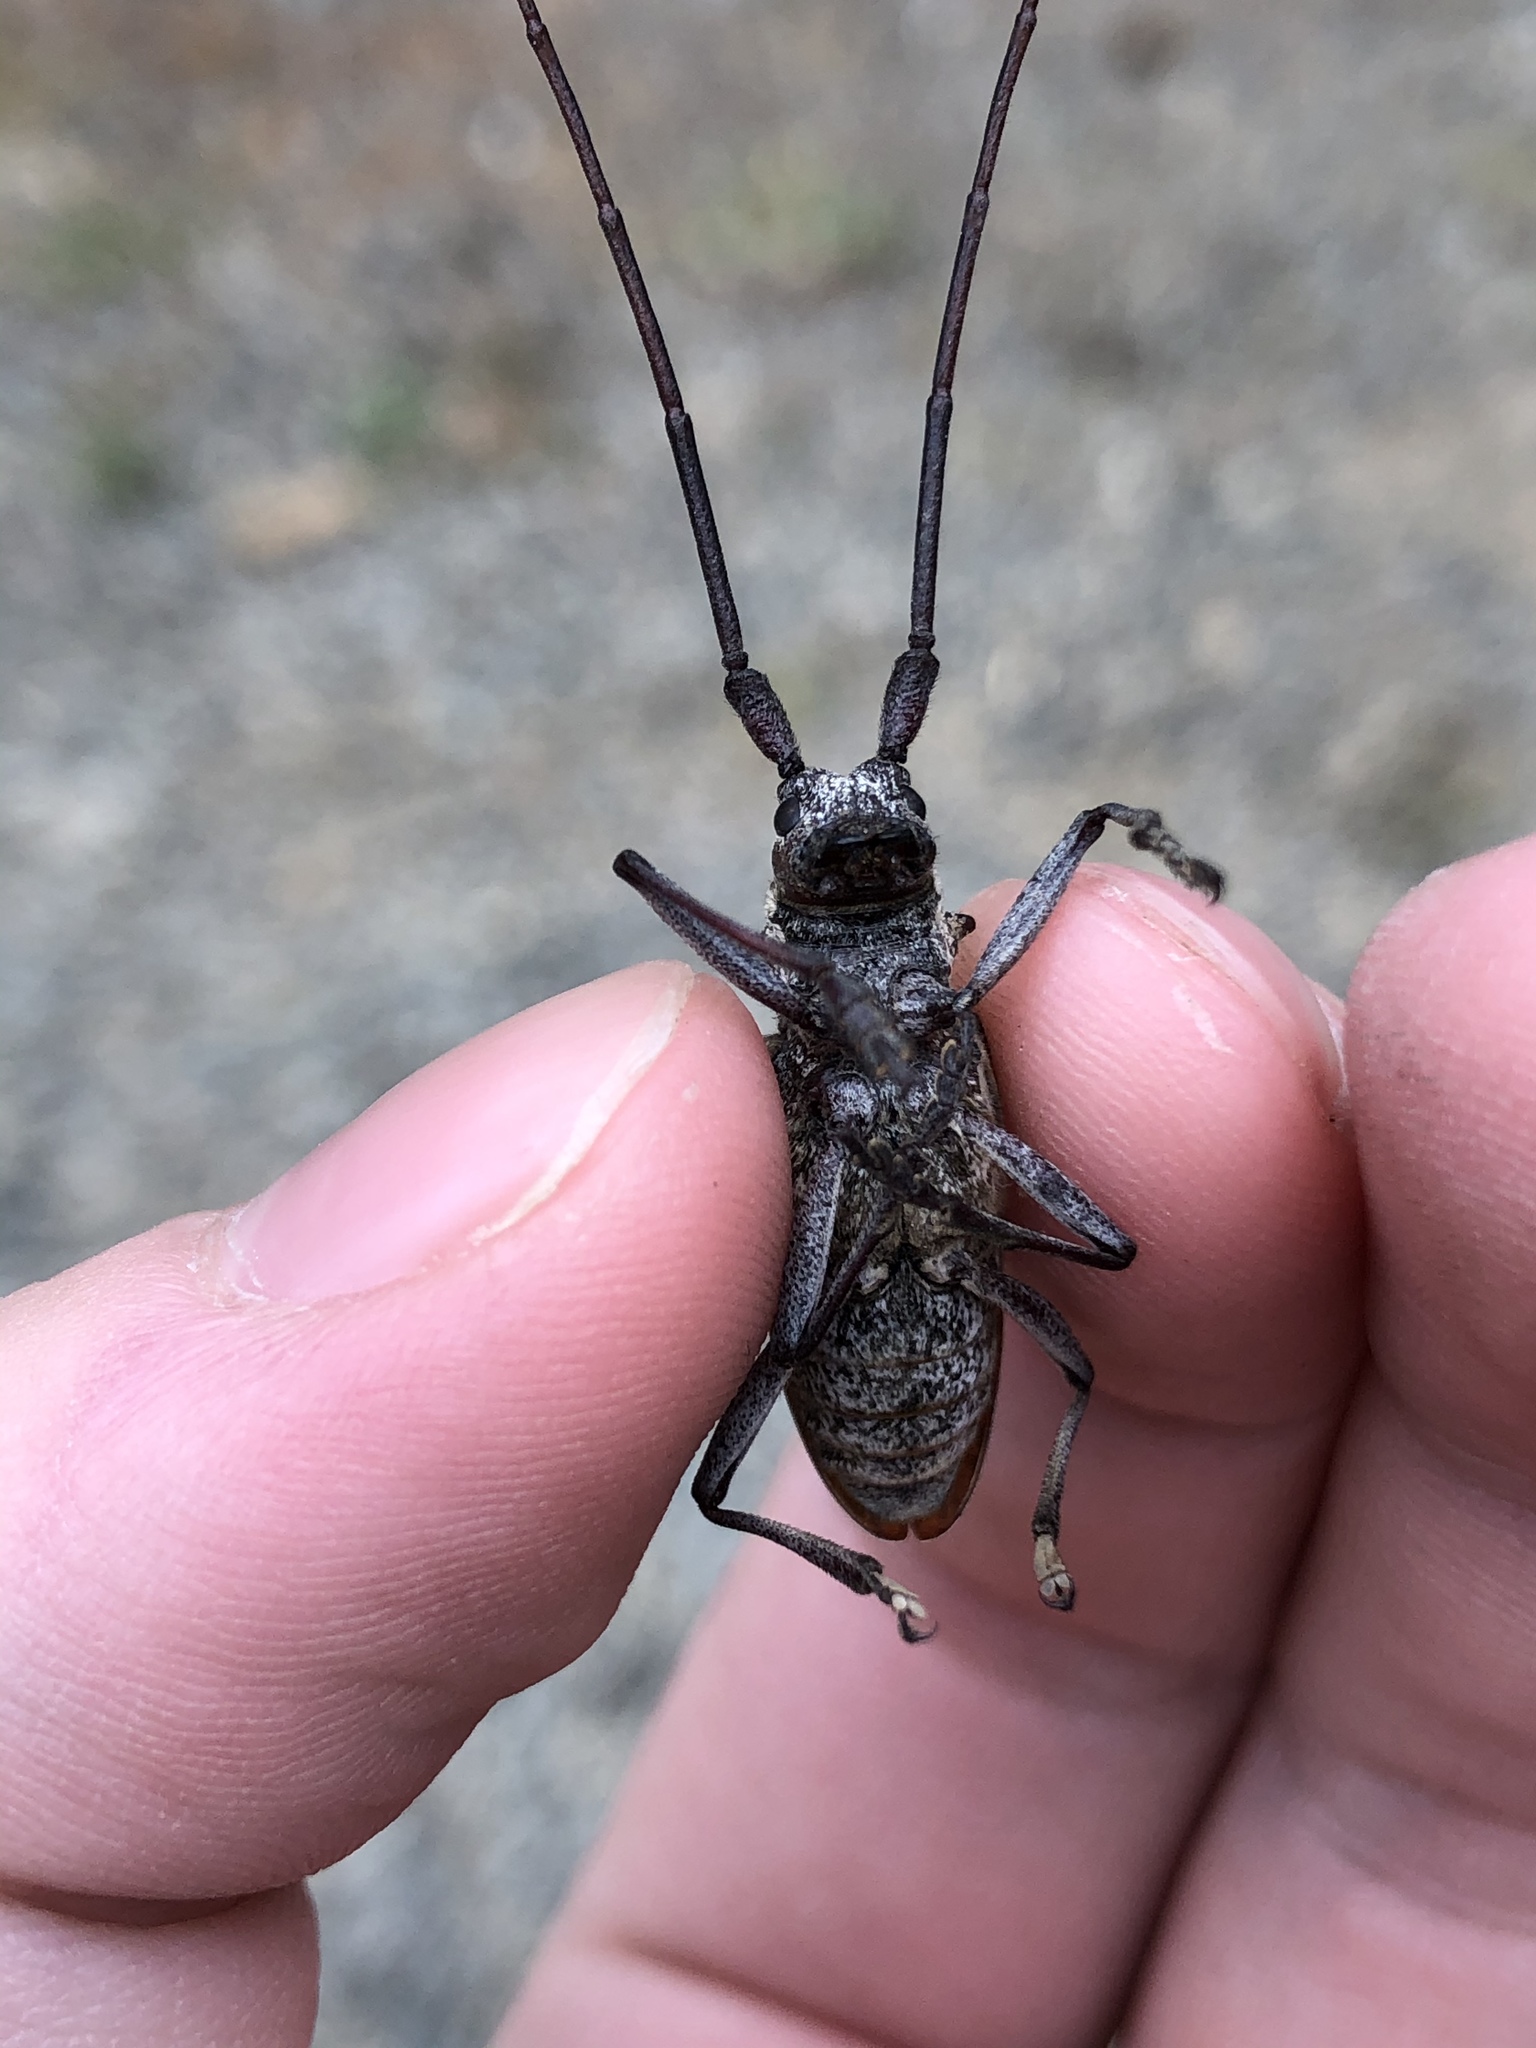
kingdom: Animalia
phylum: Arthropoda
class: Insecta
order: Coleoptera
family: Cerambycidae
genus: Monochamus
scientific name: Monochamus obtusus
